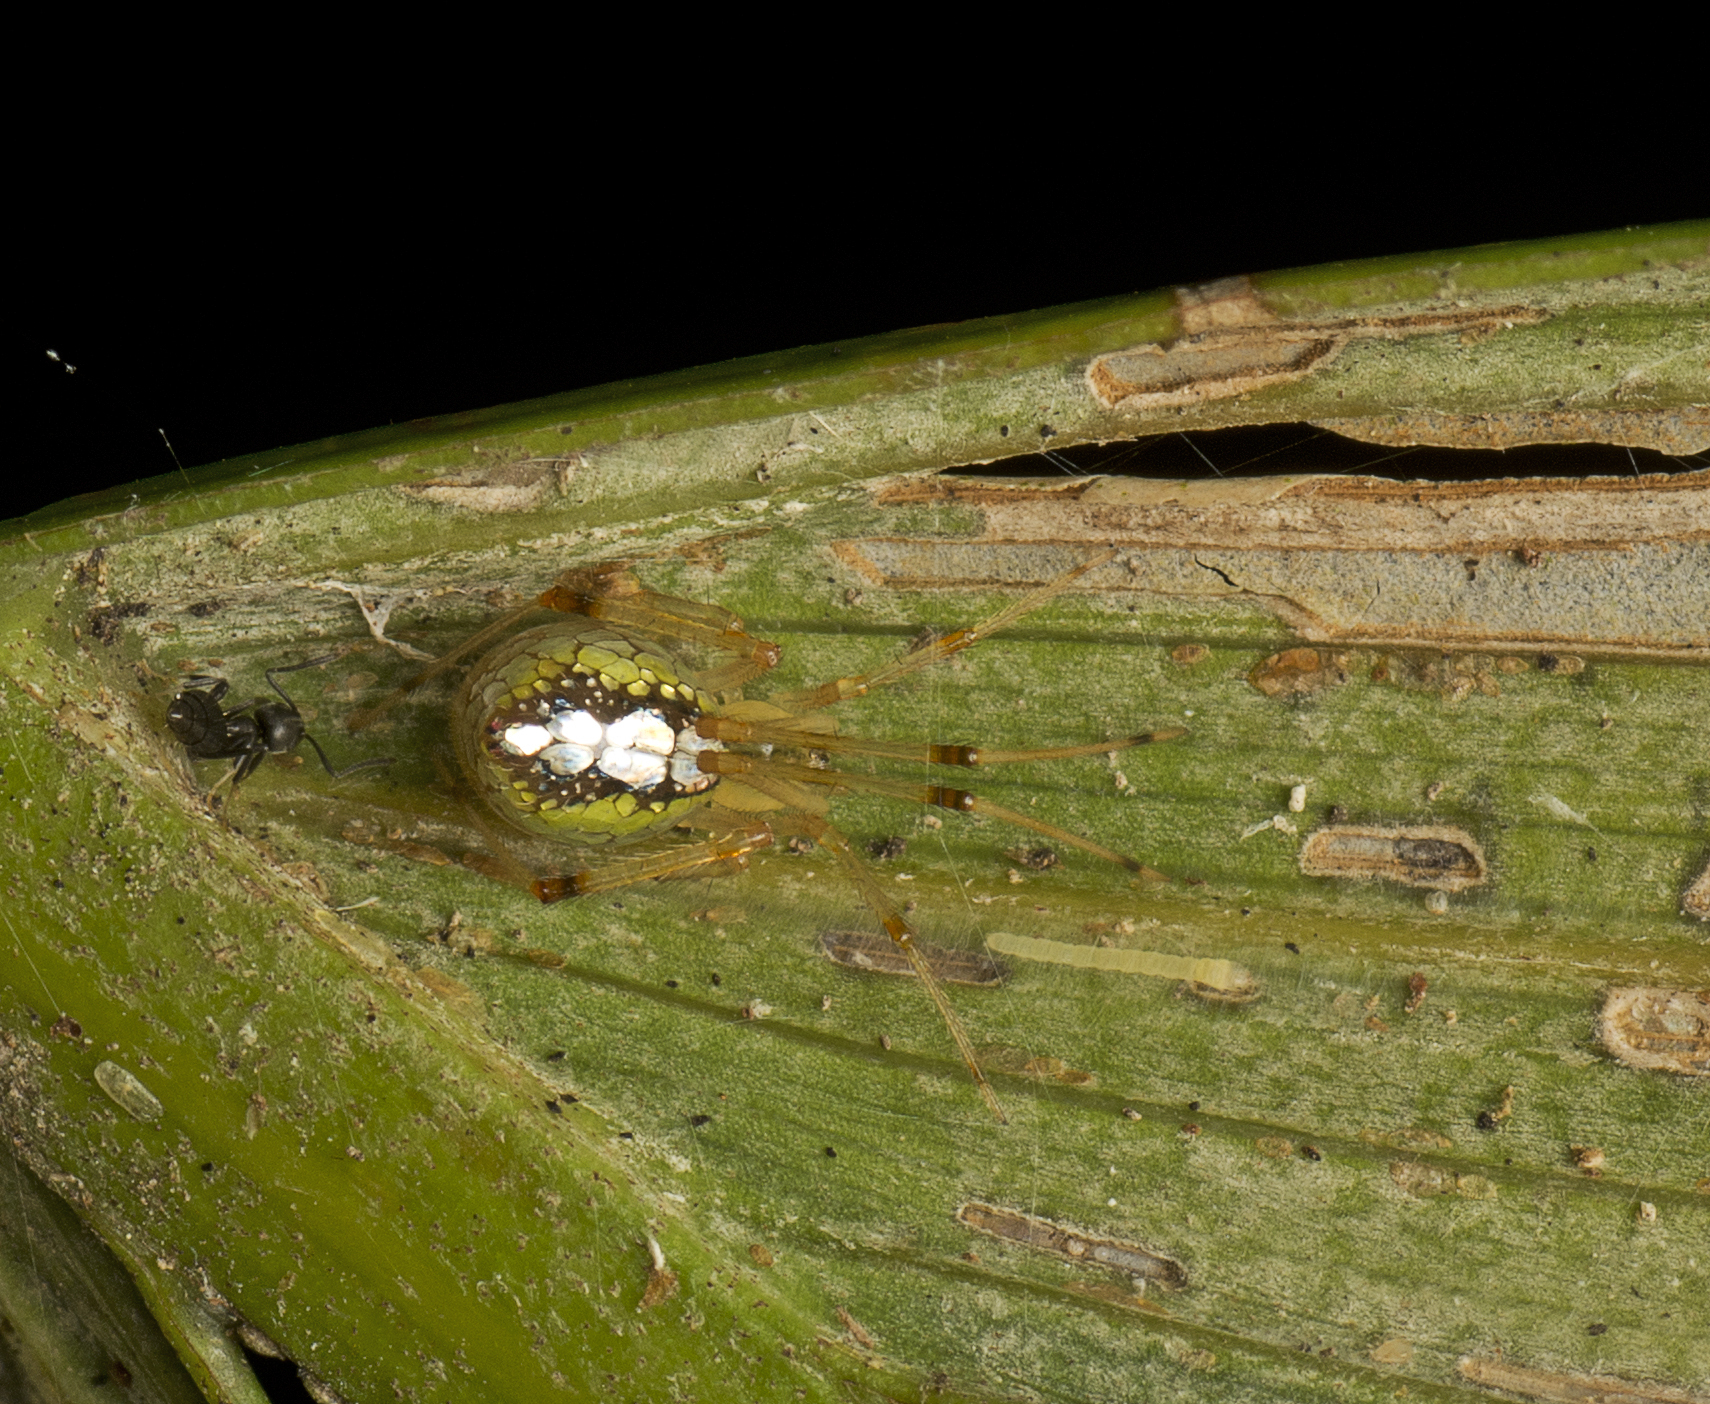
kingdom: Animalia
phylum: Arthropoda
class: Arachnida
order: Araneae
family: Theridiidae
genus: Thwaitesia
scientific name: Thwaitesia nigronodosa
